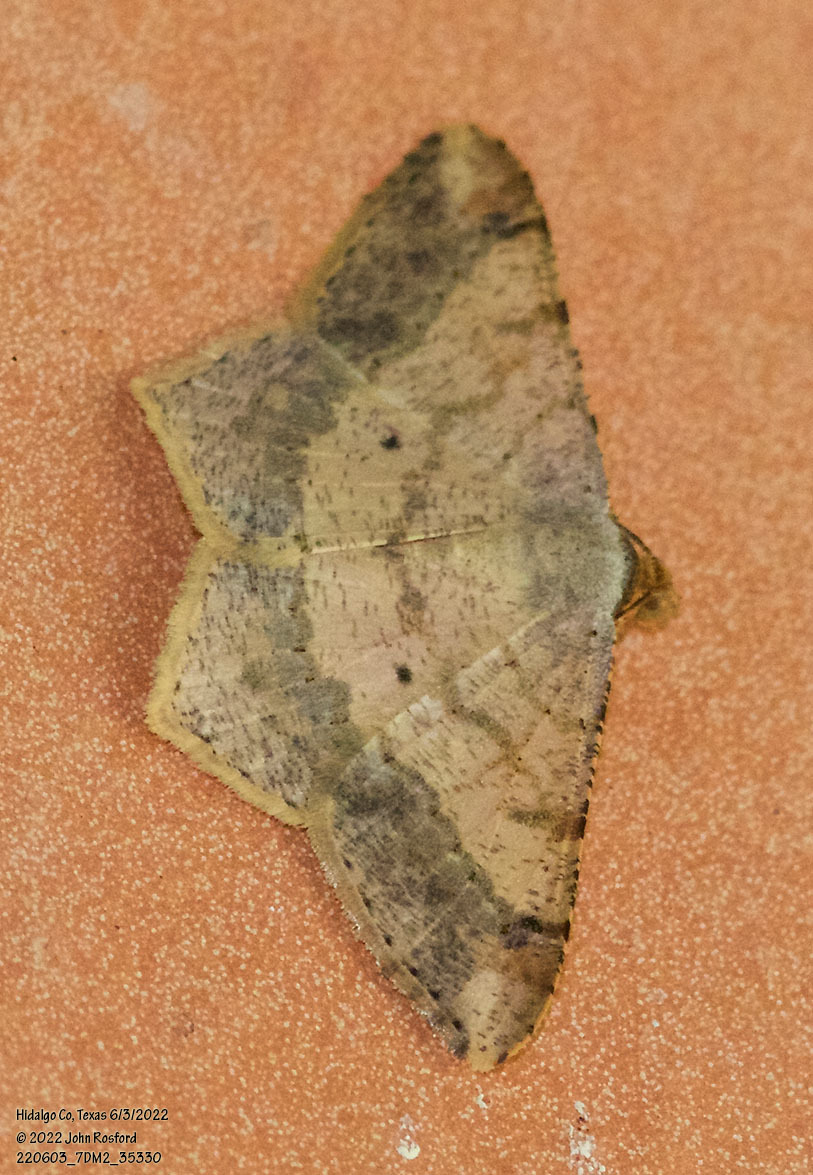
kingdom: Animalia
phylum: Arthropoda
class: Insecta
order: Lepidoptera
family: Geometridae
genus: Macaria
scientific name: Macaria abydata
